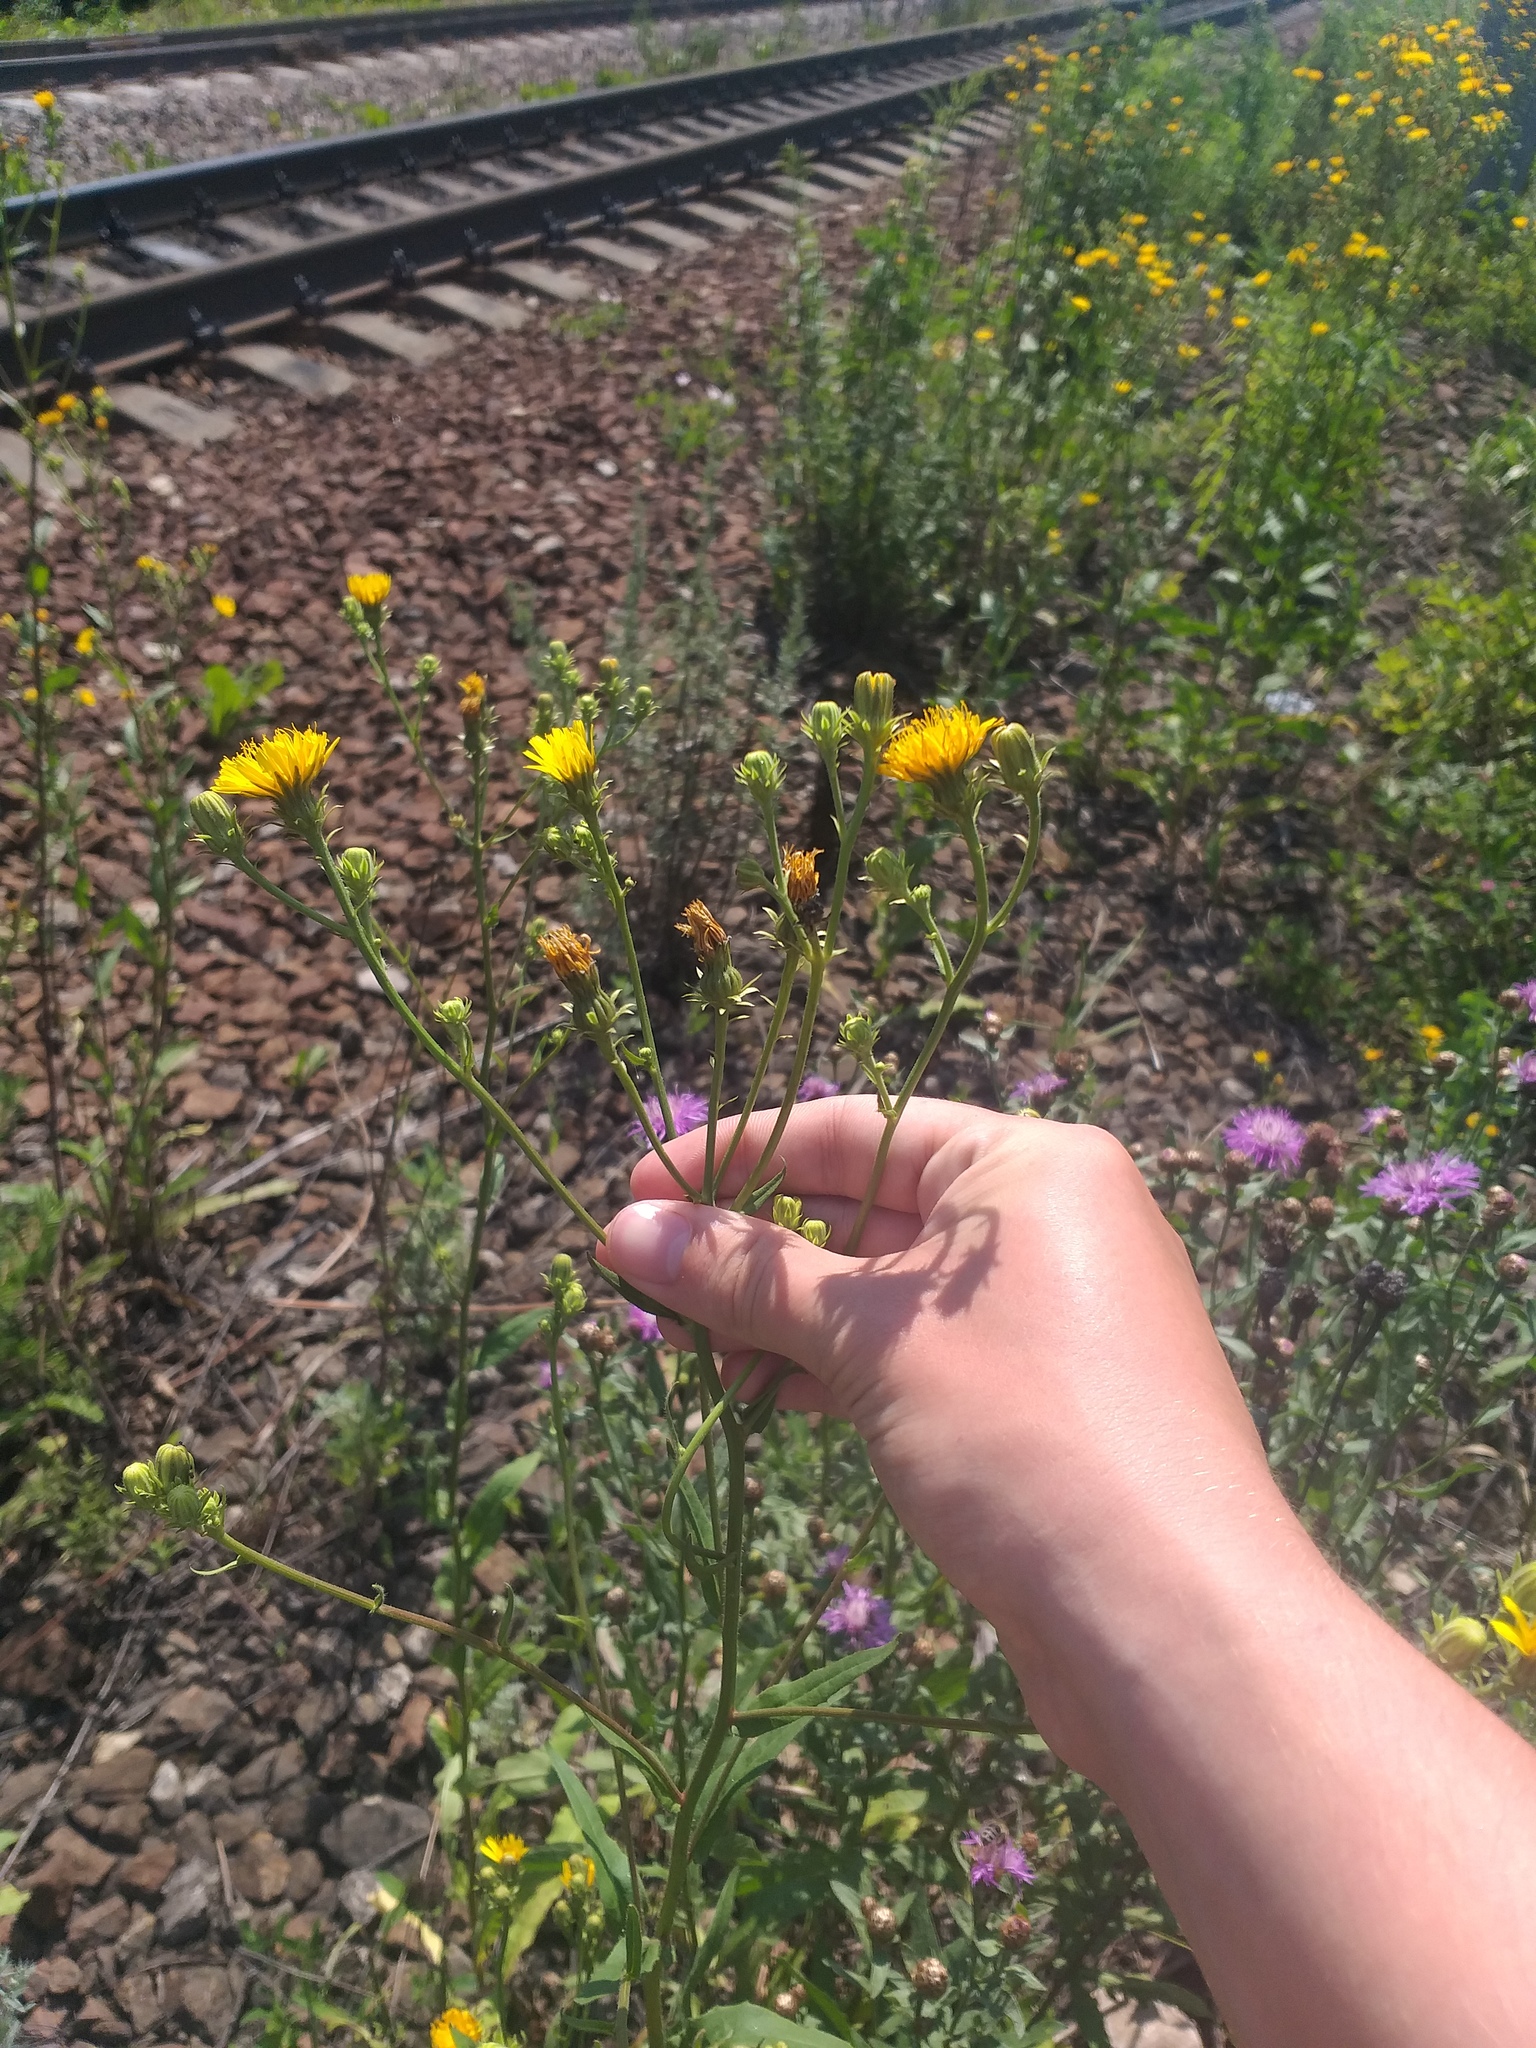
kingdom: Plantae
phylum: Tracheophyta
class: Magnoliopsida
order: Asterales
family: Asteraceae
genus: Picris
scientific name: Picris hieracioides
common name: Hawkweed oxtongue
